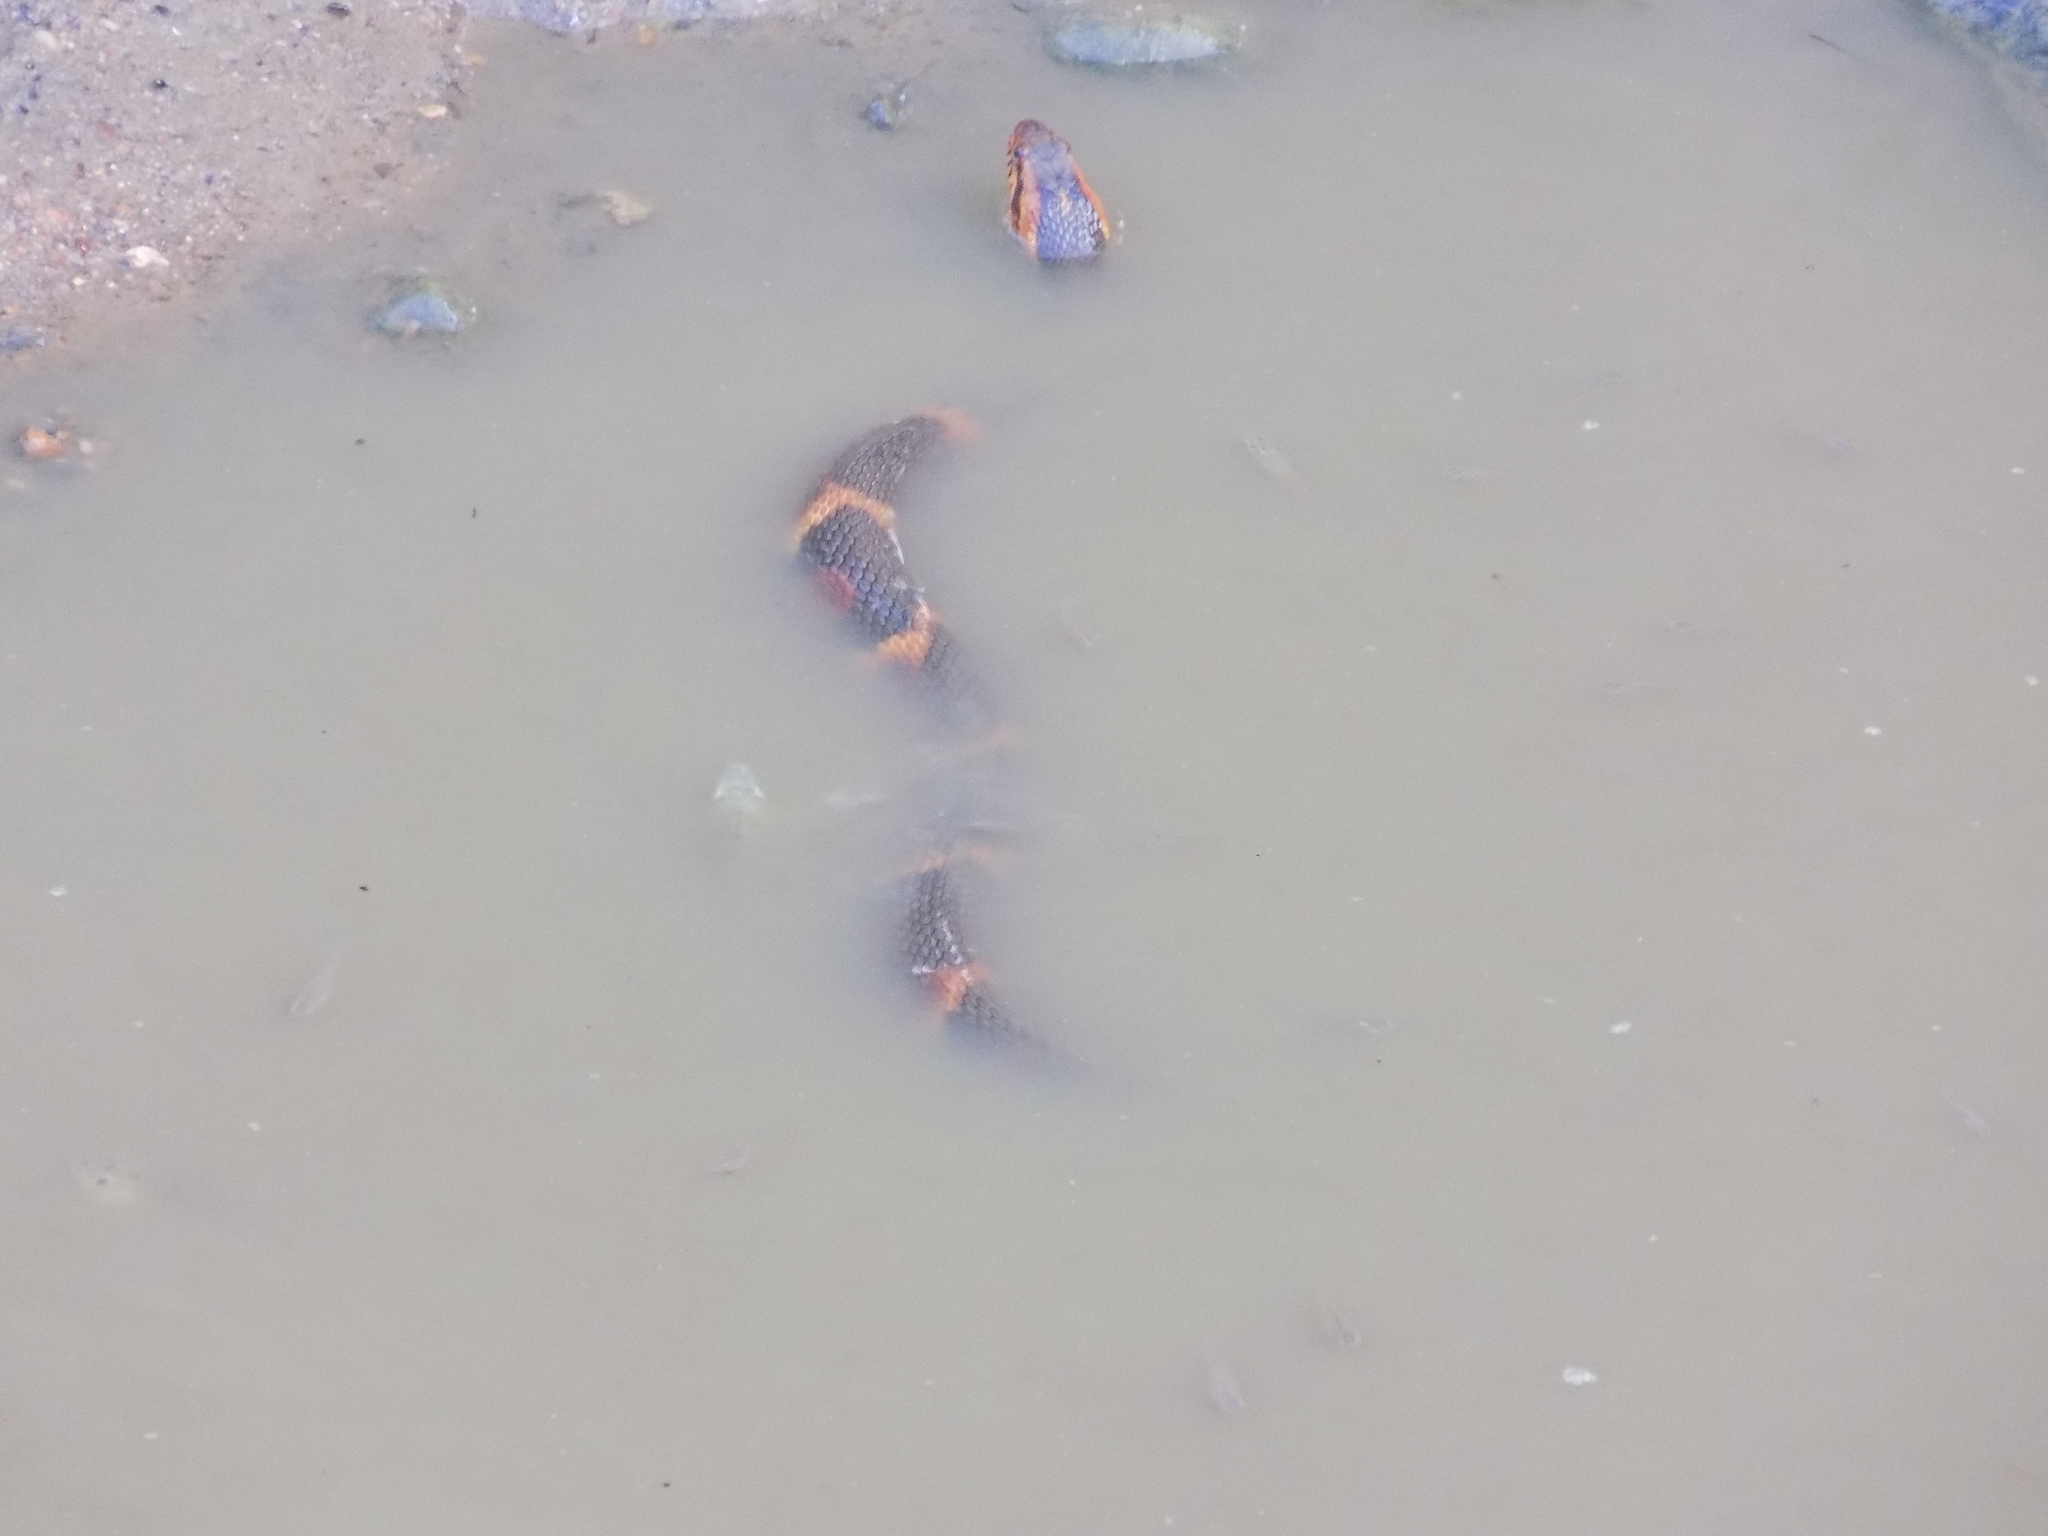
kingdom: Animalia
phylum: Chordata
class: Squamata
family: Colubridae
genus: Nerodia
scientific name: Nerodia fasciata
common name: Southern water snake
